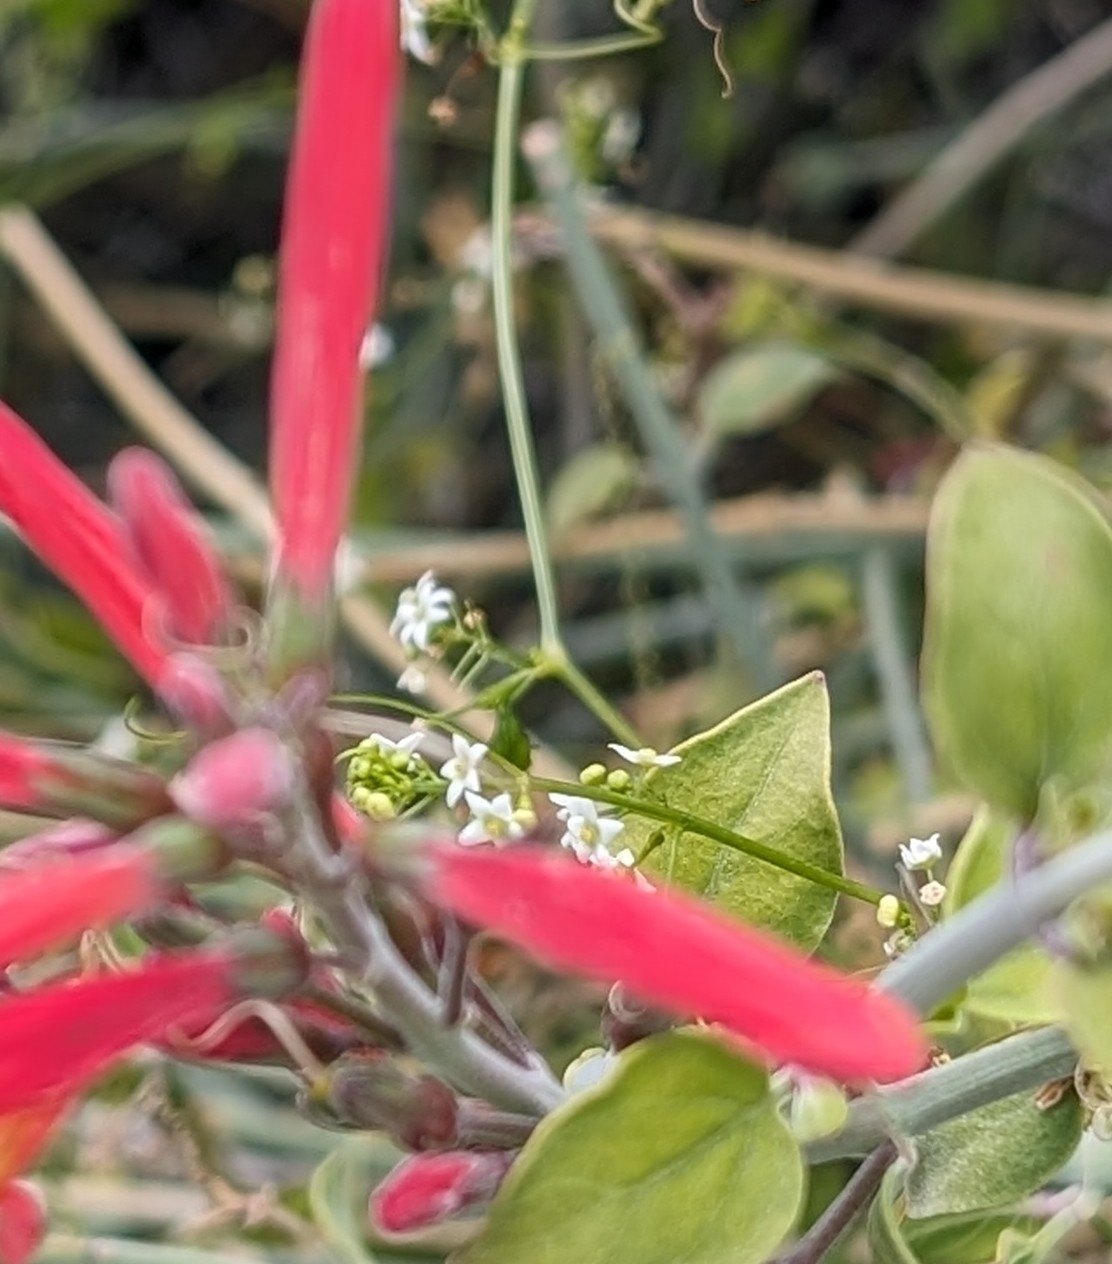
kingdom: Plantae
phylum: Tracheophyta
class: Magnoliopsida
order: Cucurbitales
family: Cucurbitaceae
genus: Echinopepon
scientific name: Echinopepon bigelovii
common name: Desert starvine
